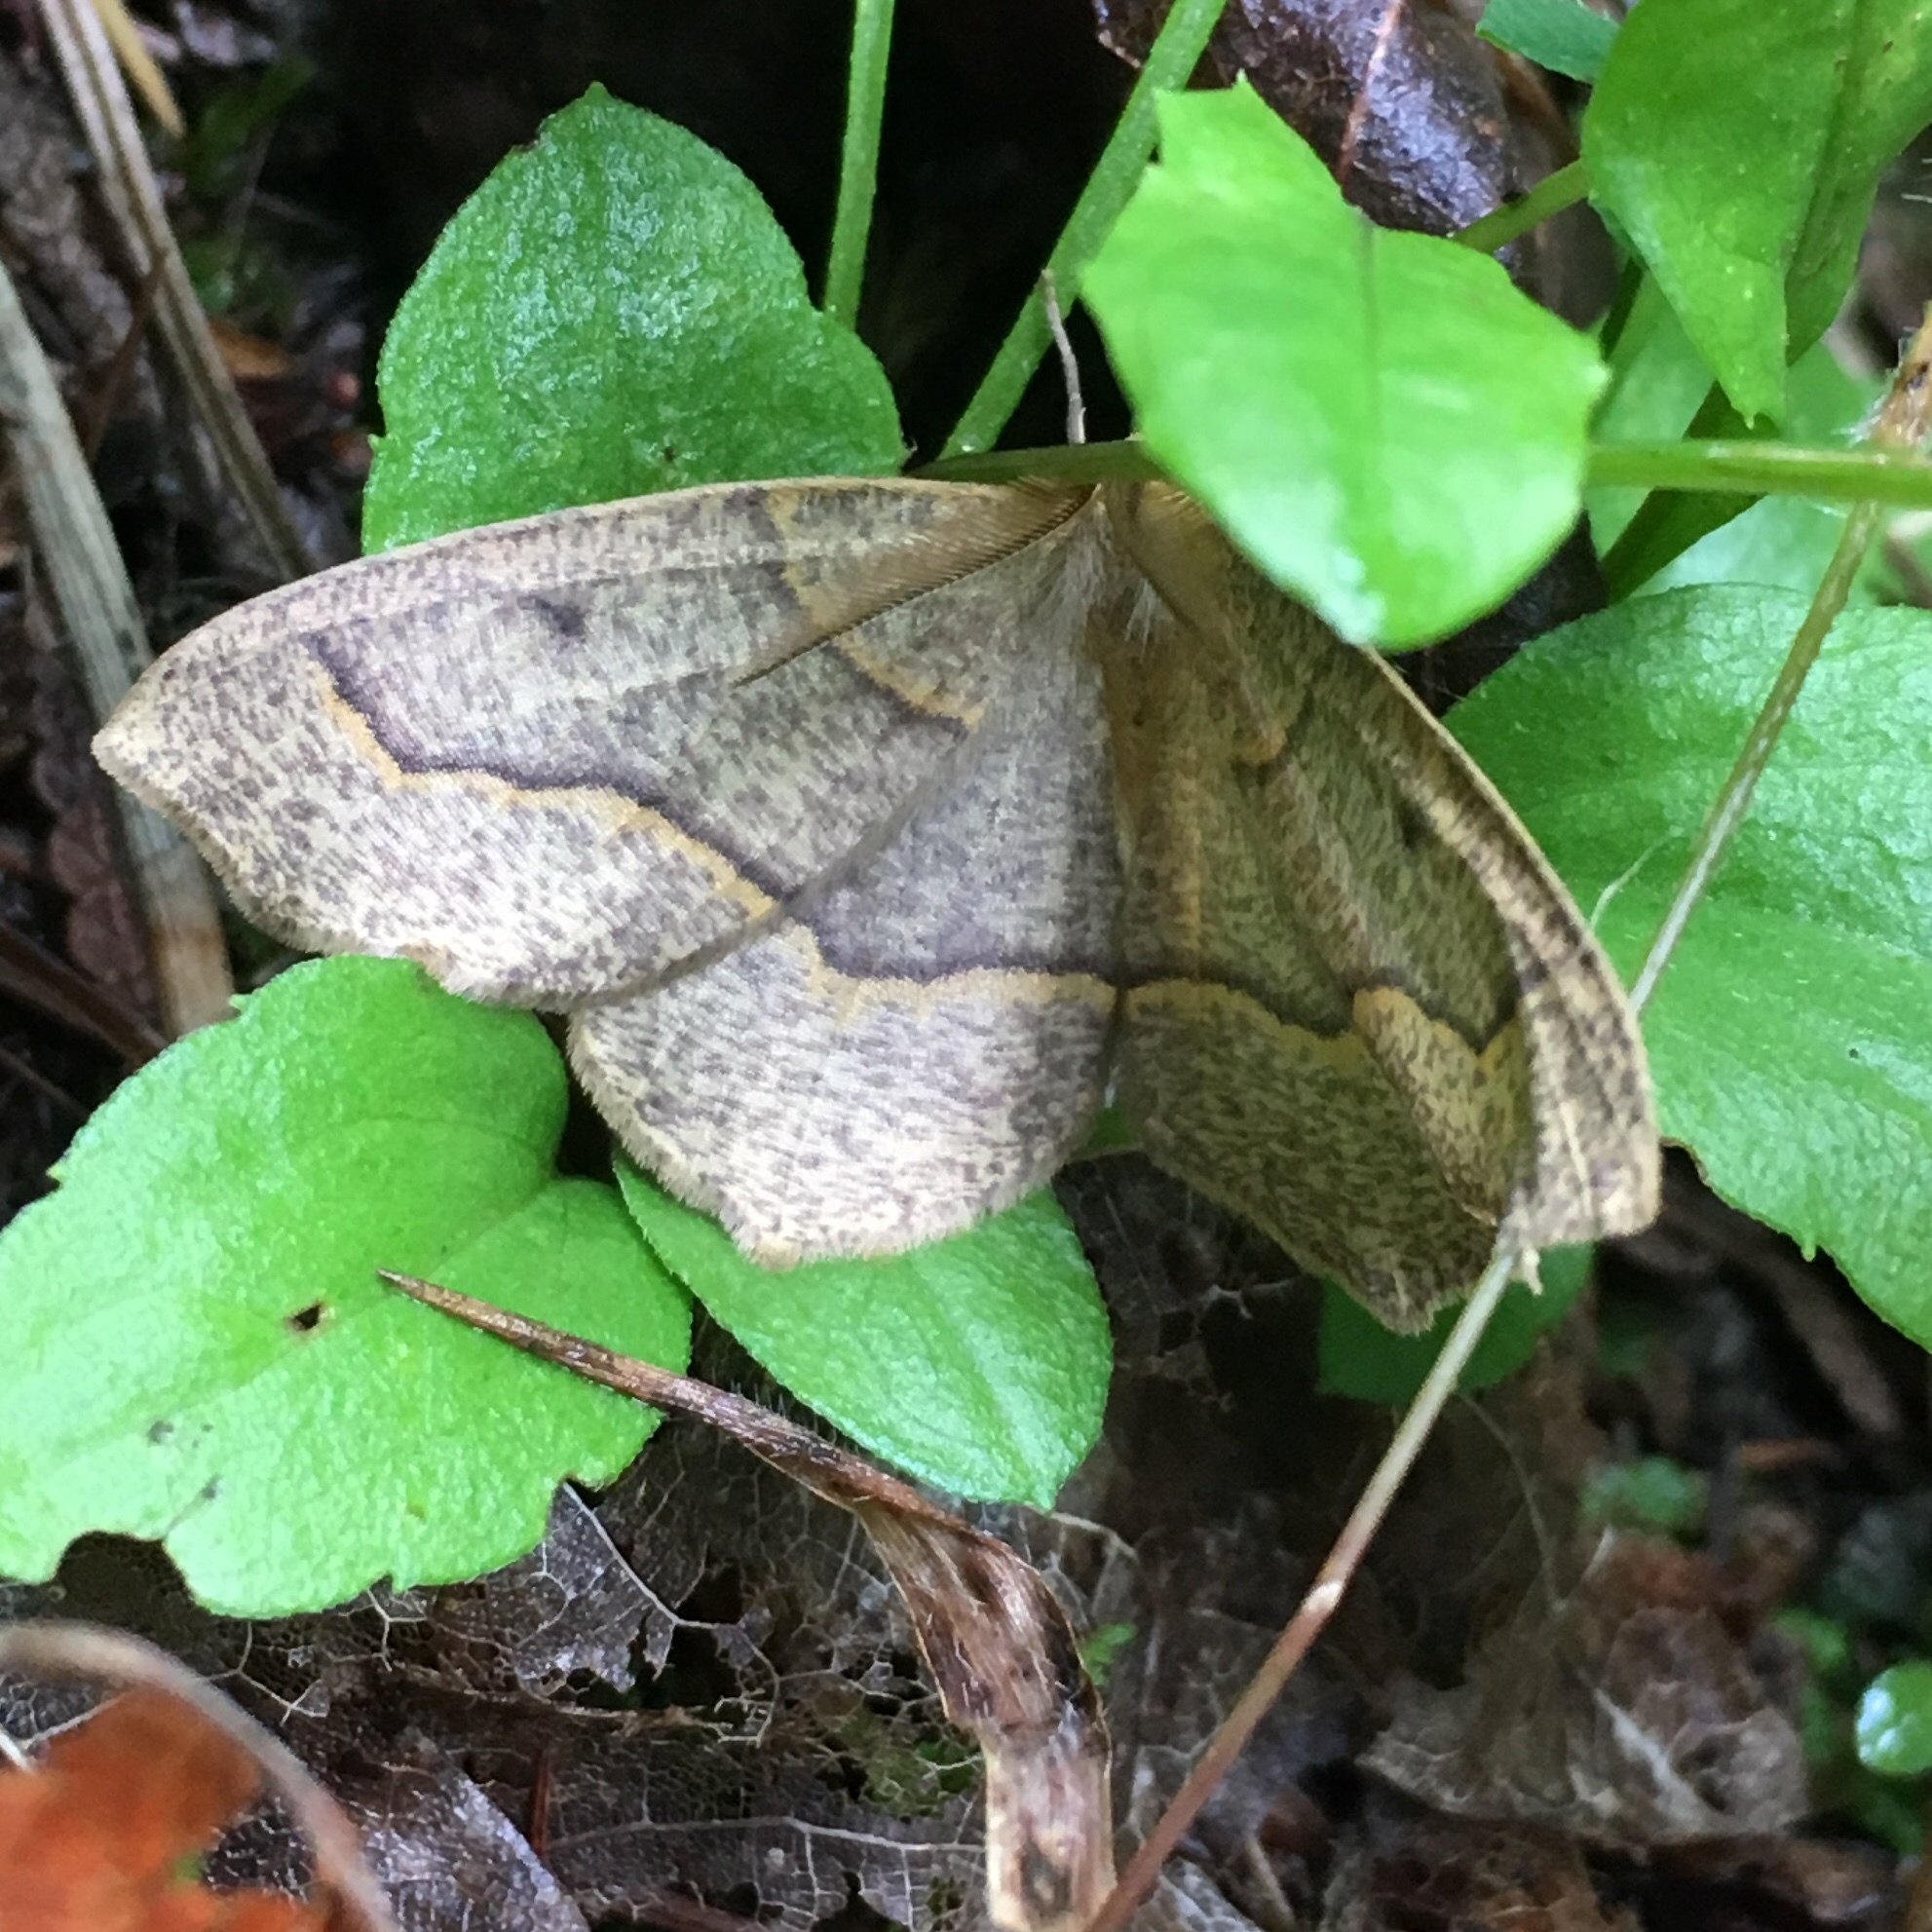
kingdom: Animalia
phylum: Arthropoda
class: Insecta
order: Lepidoptera
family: Geometridae
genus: Lambdina
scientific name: Lambdina fiscellaria
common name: Hemlock looper
